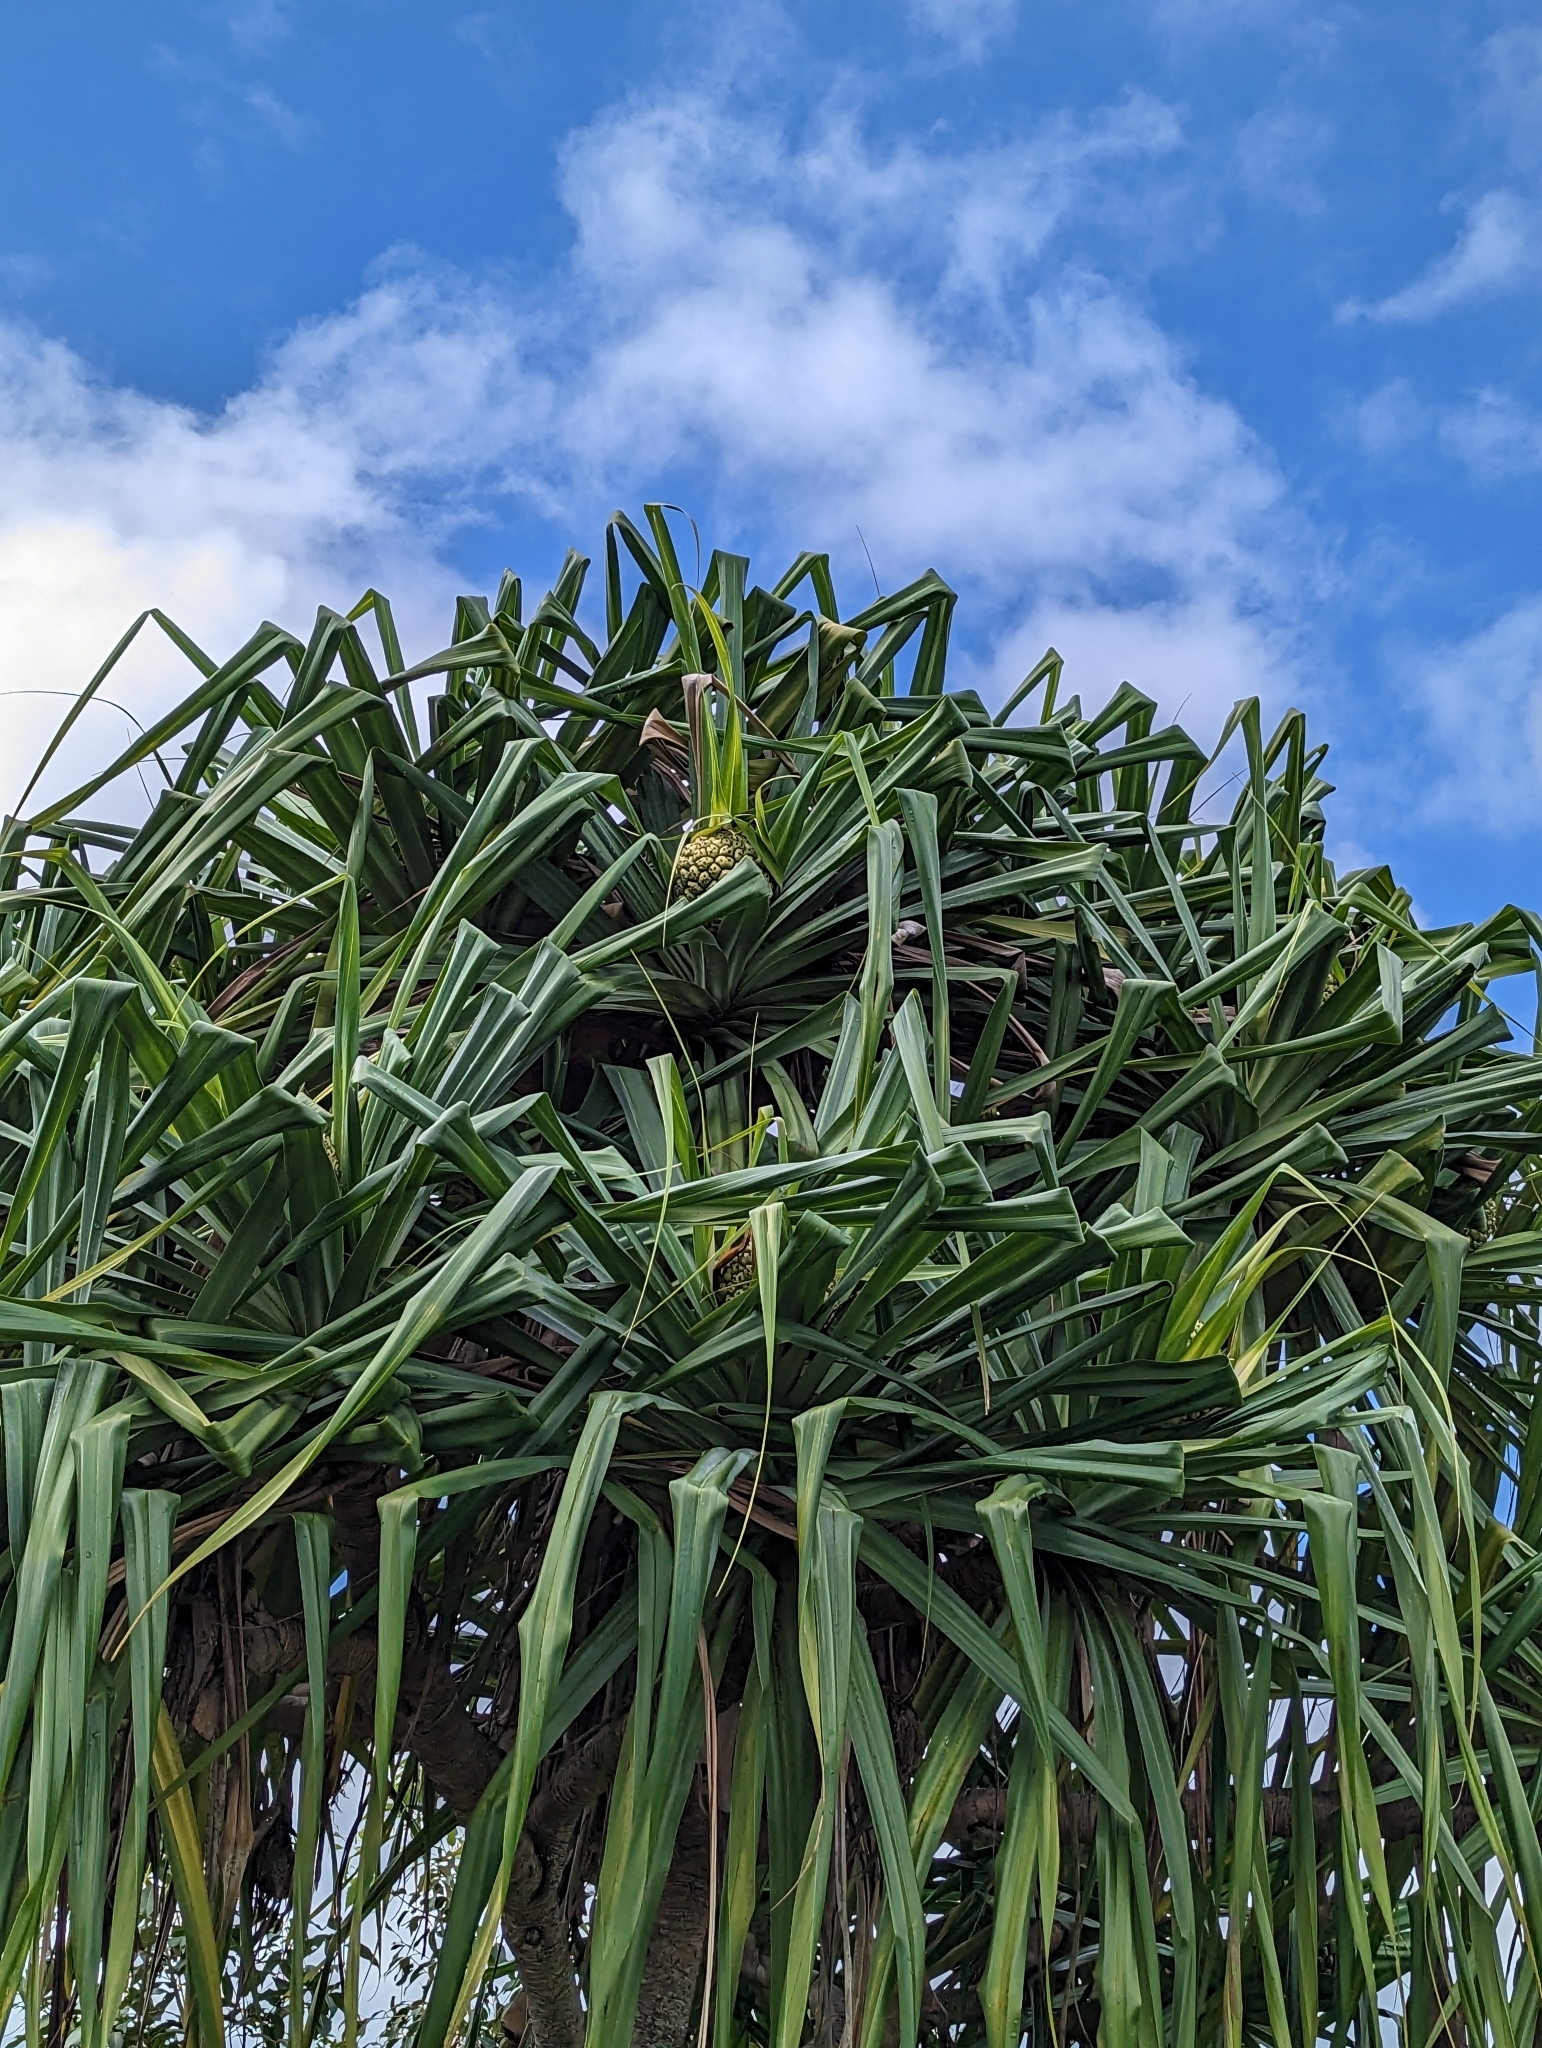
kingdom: Plantae
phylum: Tracheophyta
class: Liliopsida
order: Pandanales
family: Pandanaceae
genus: Pandanus
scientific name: Pandanus tectorius
